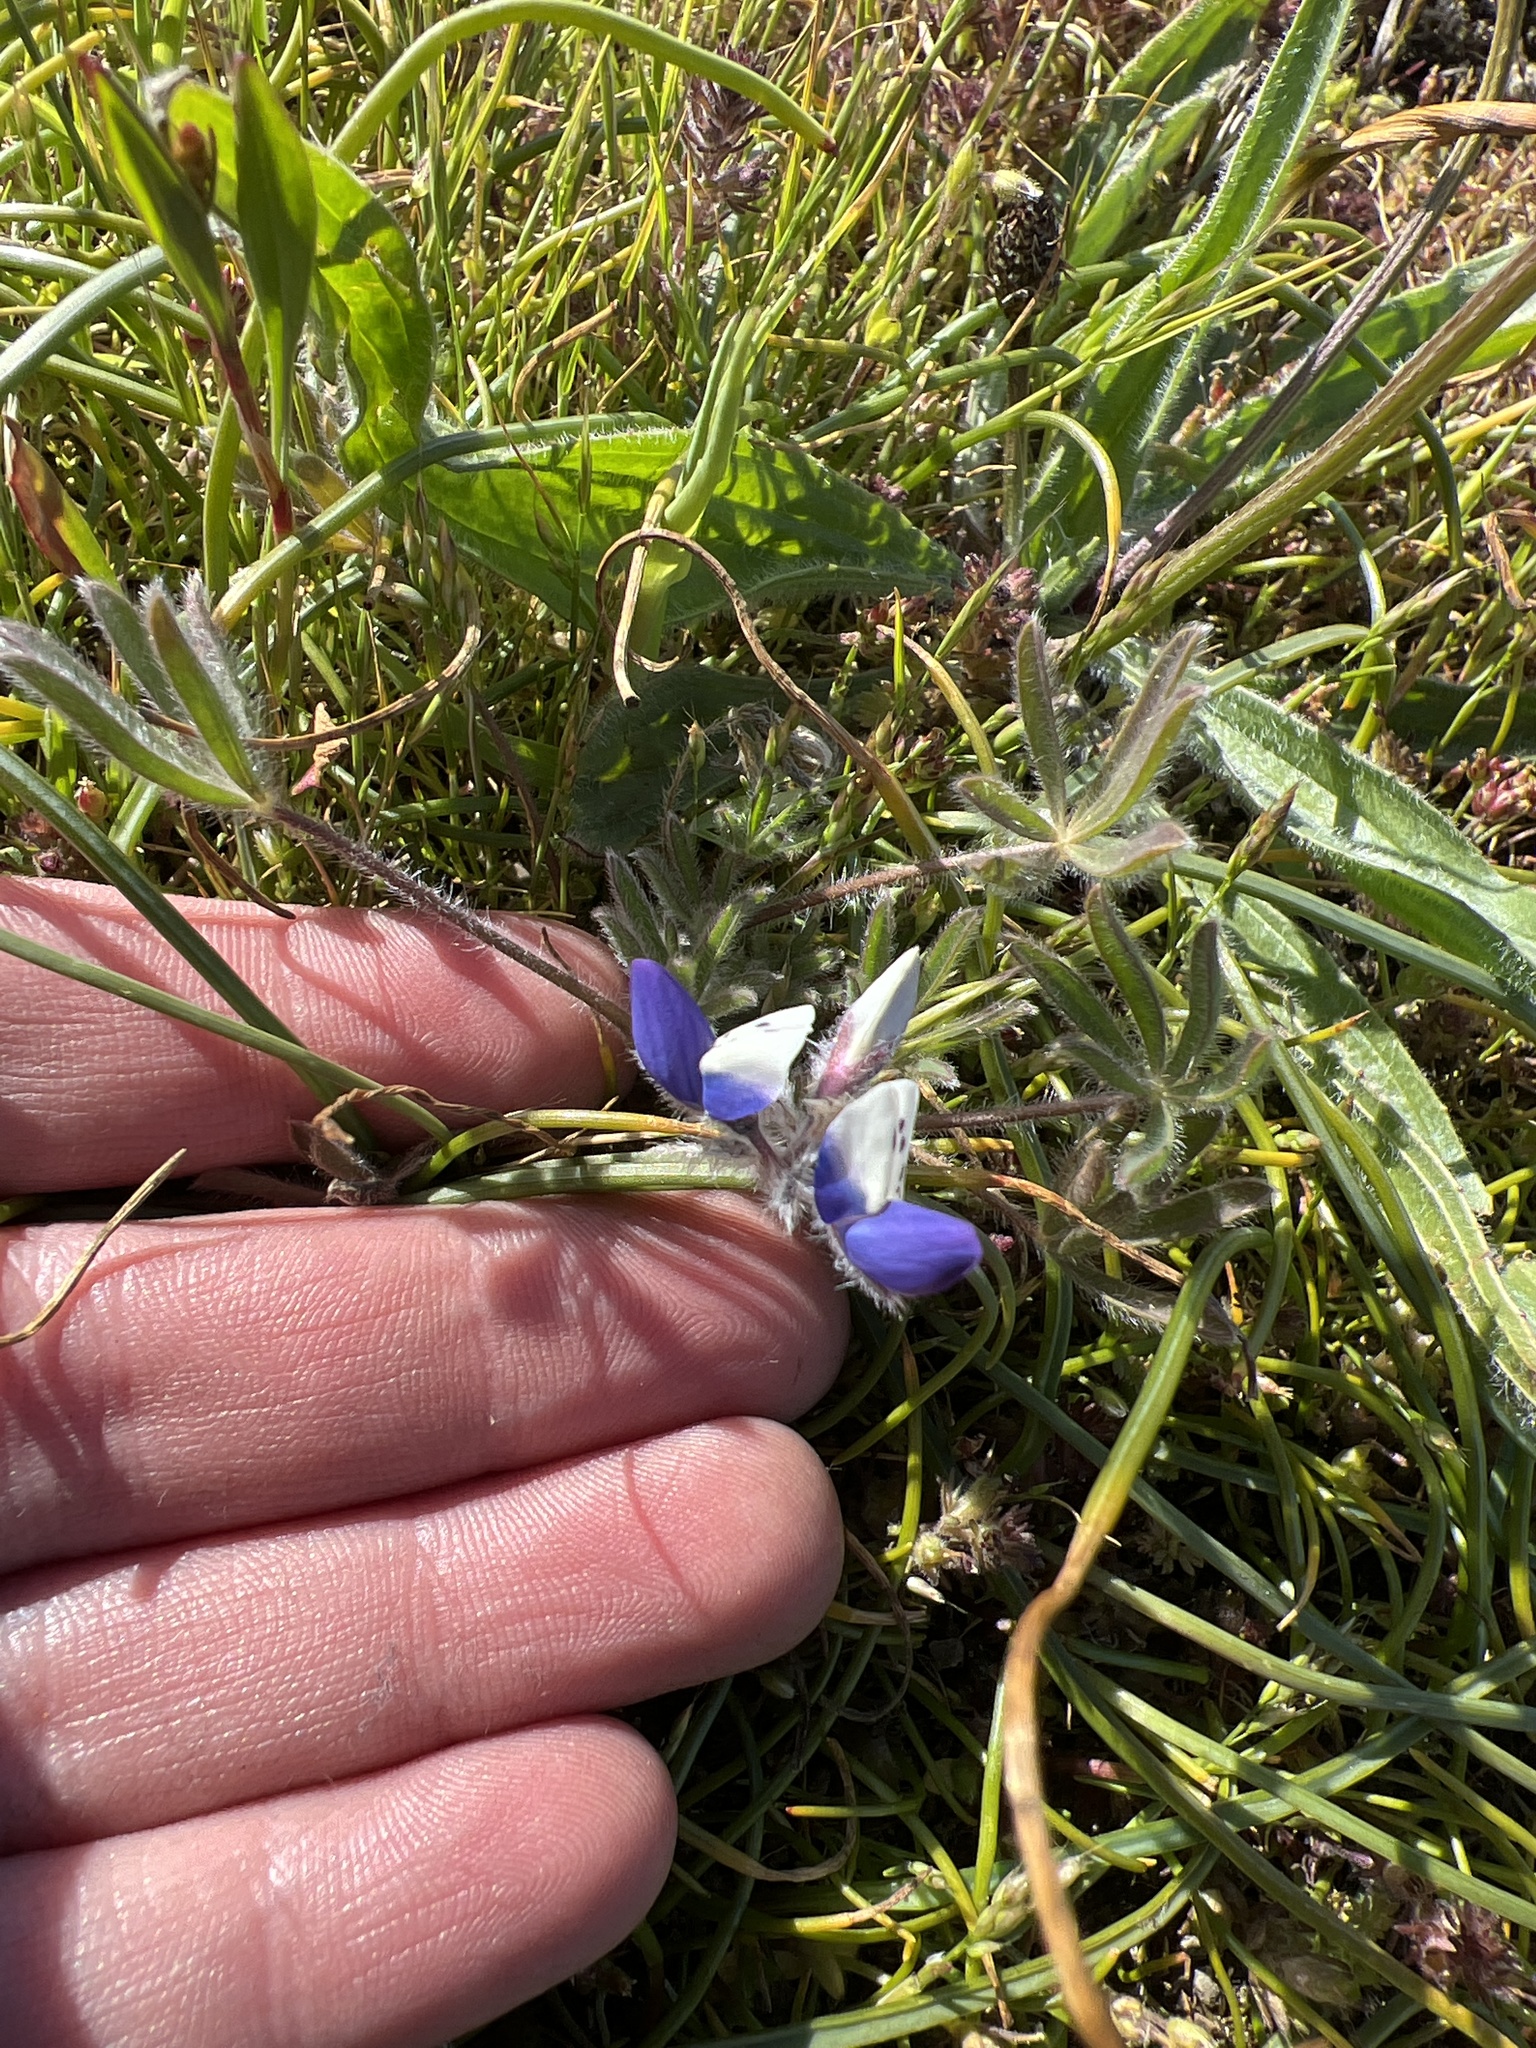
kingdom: Plantae
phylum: Tracheophyta
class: Magnoliopsida
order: Fabales
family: Fabaceae
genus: Lupinus
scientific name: Lupinus bicolor
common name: Miniature lupine
